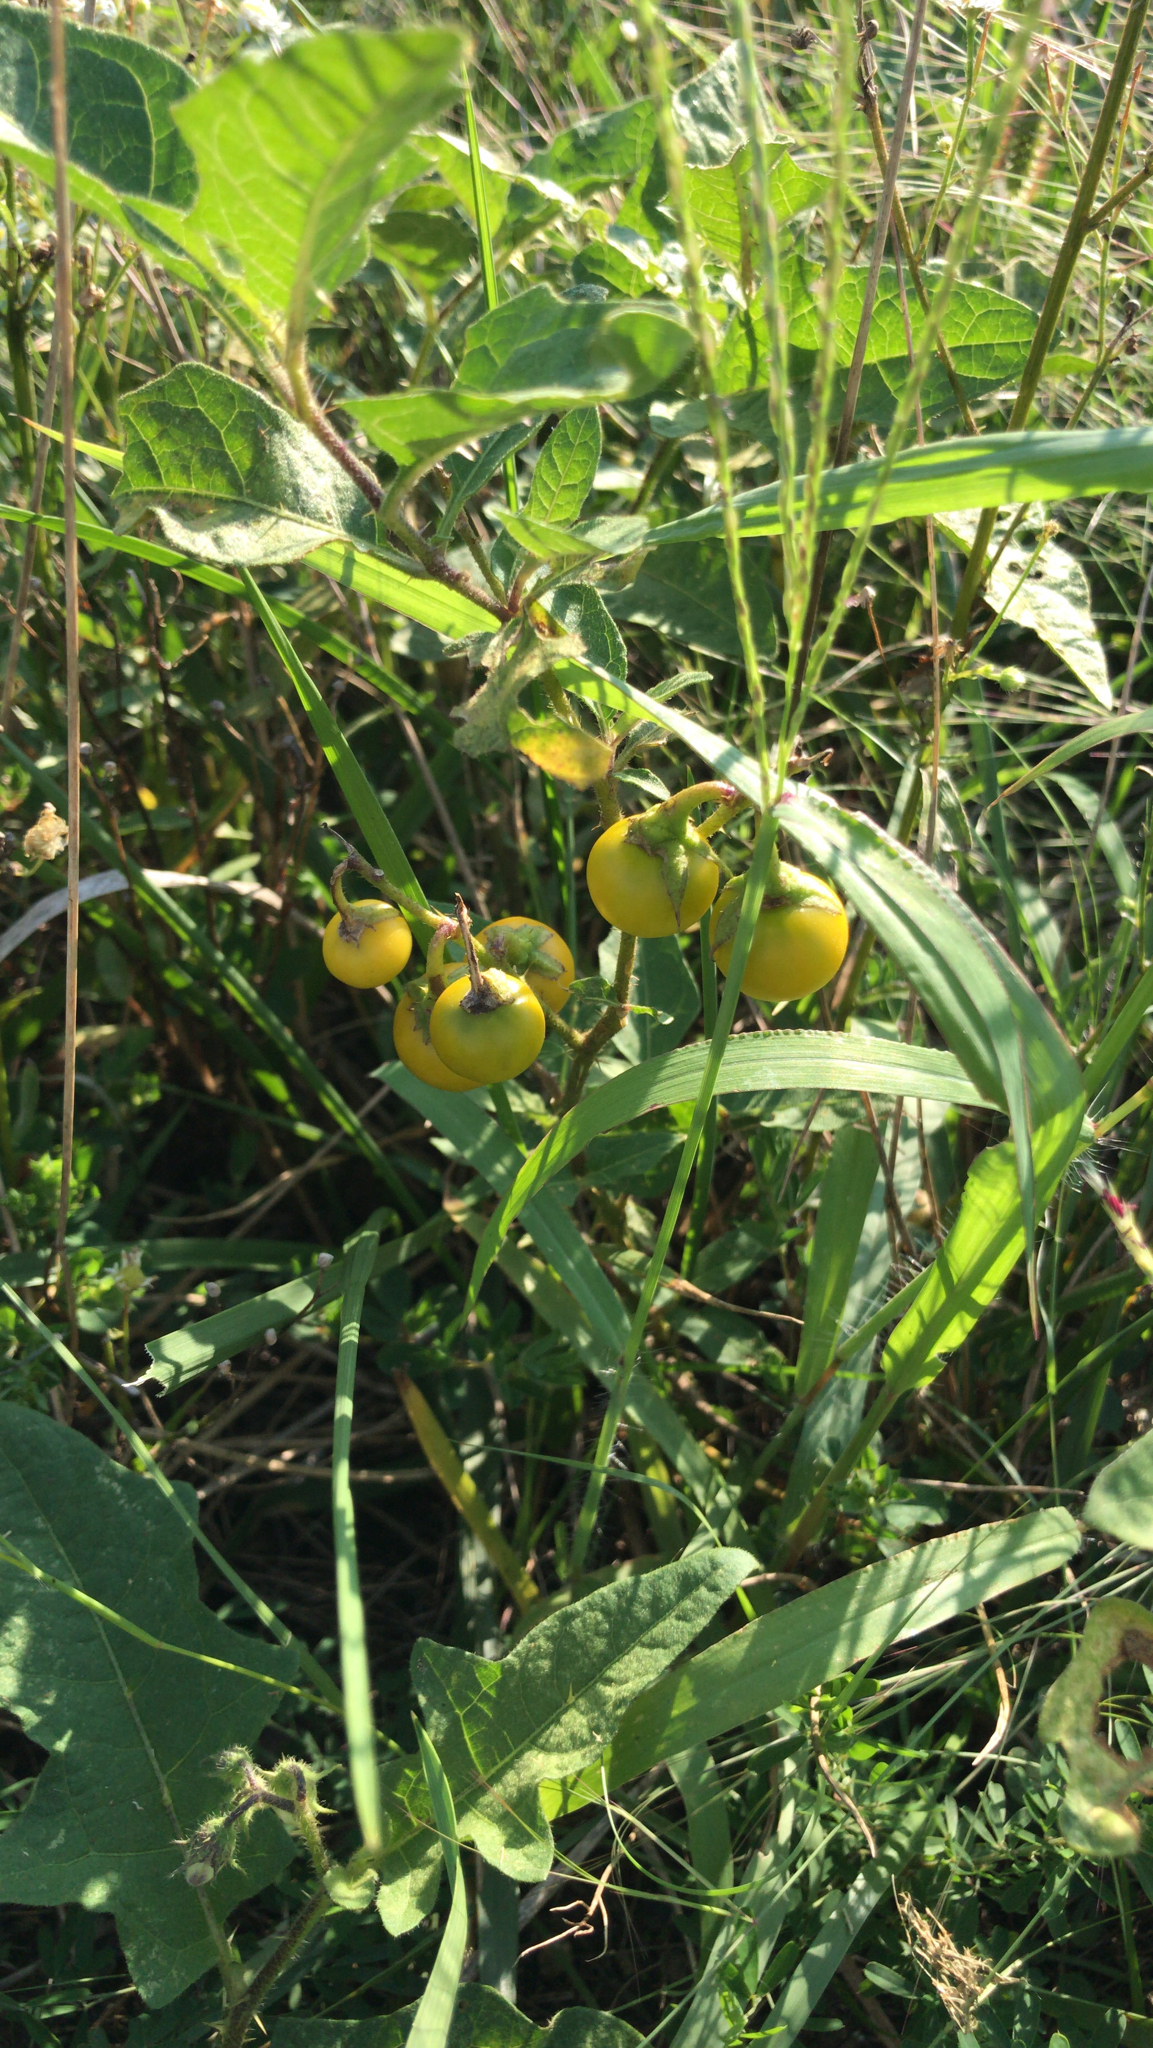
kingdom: Plantae
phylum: Tracheophyta
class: Magnoliopsida
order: Solanales
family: Solanaceae
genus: Solanum
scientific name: Solanum carolinense
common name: Horse-nettle
